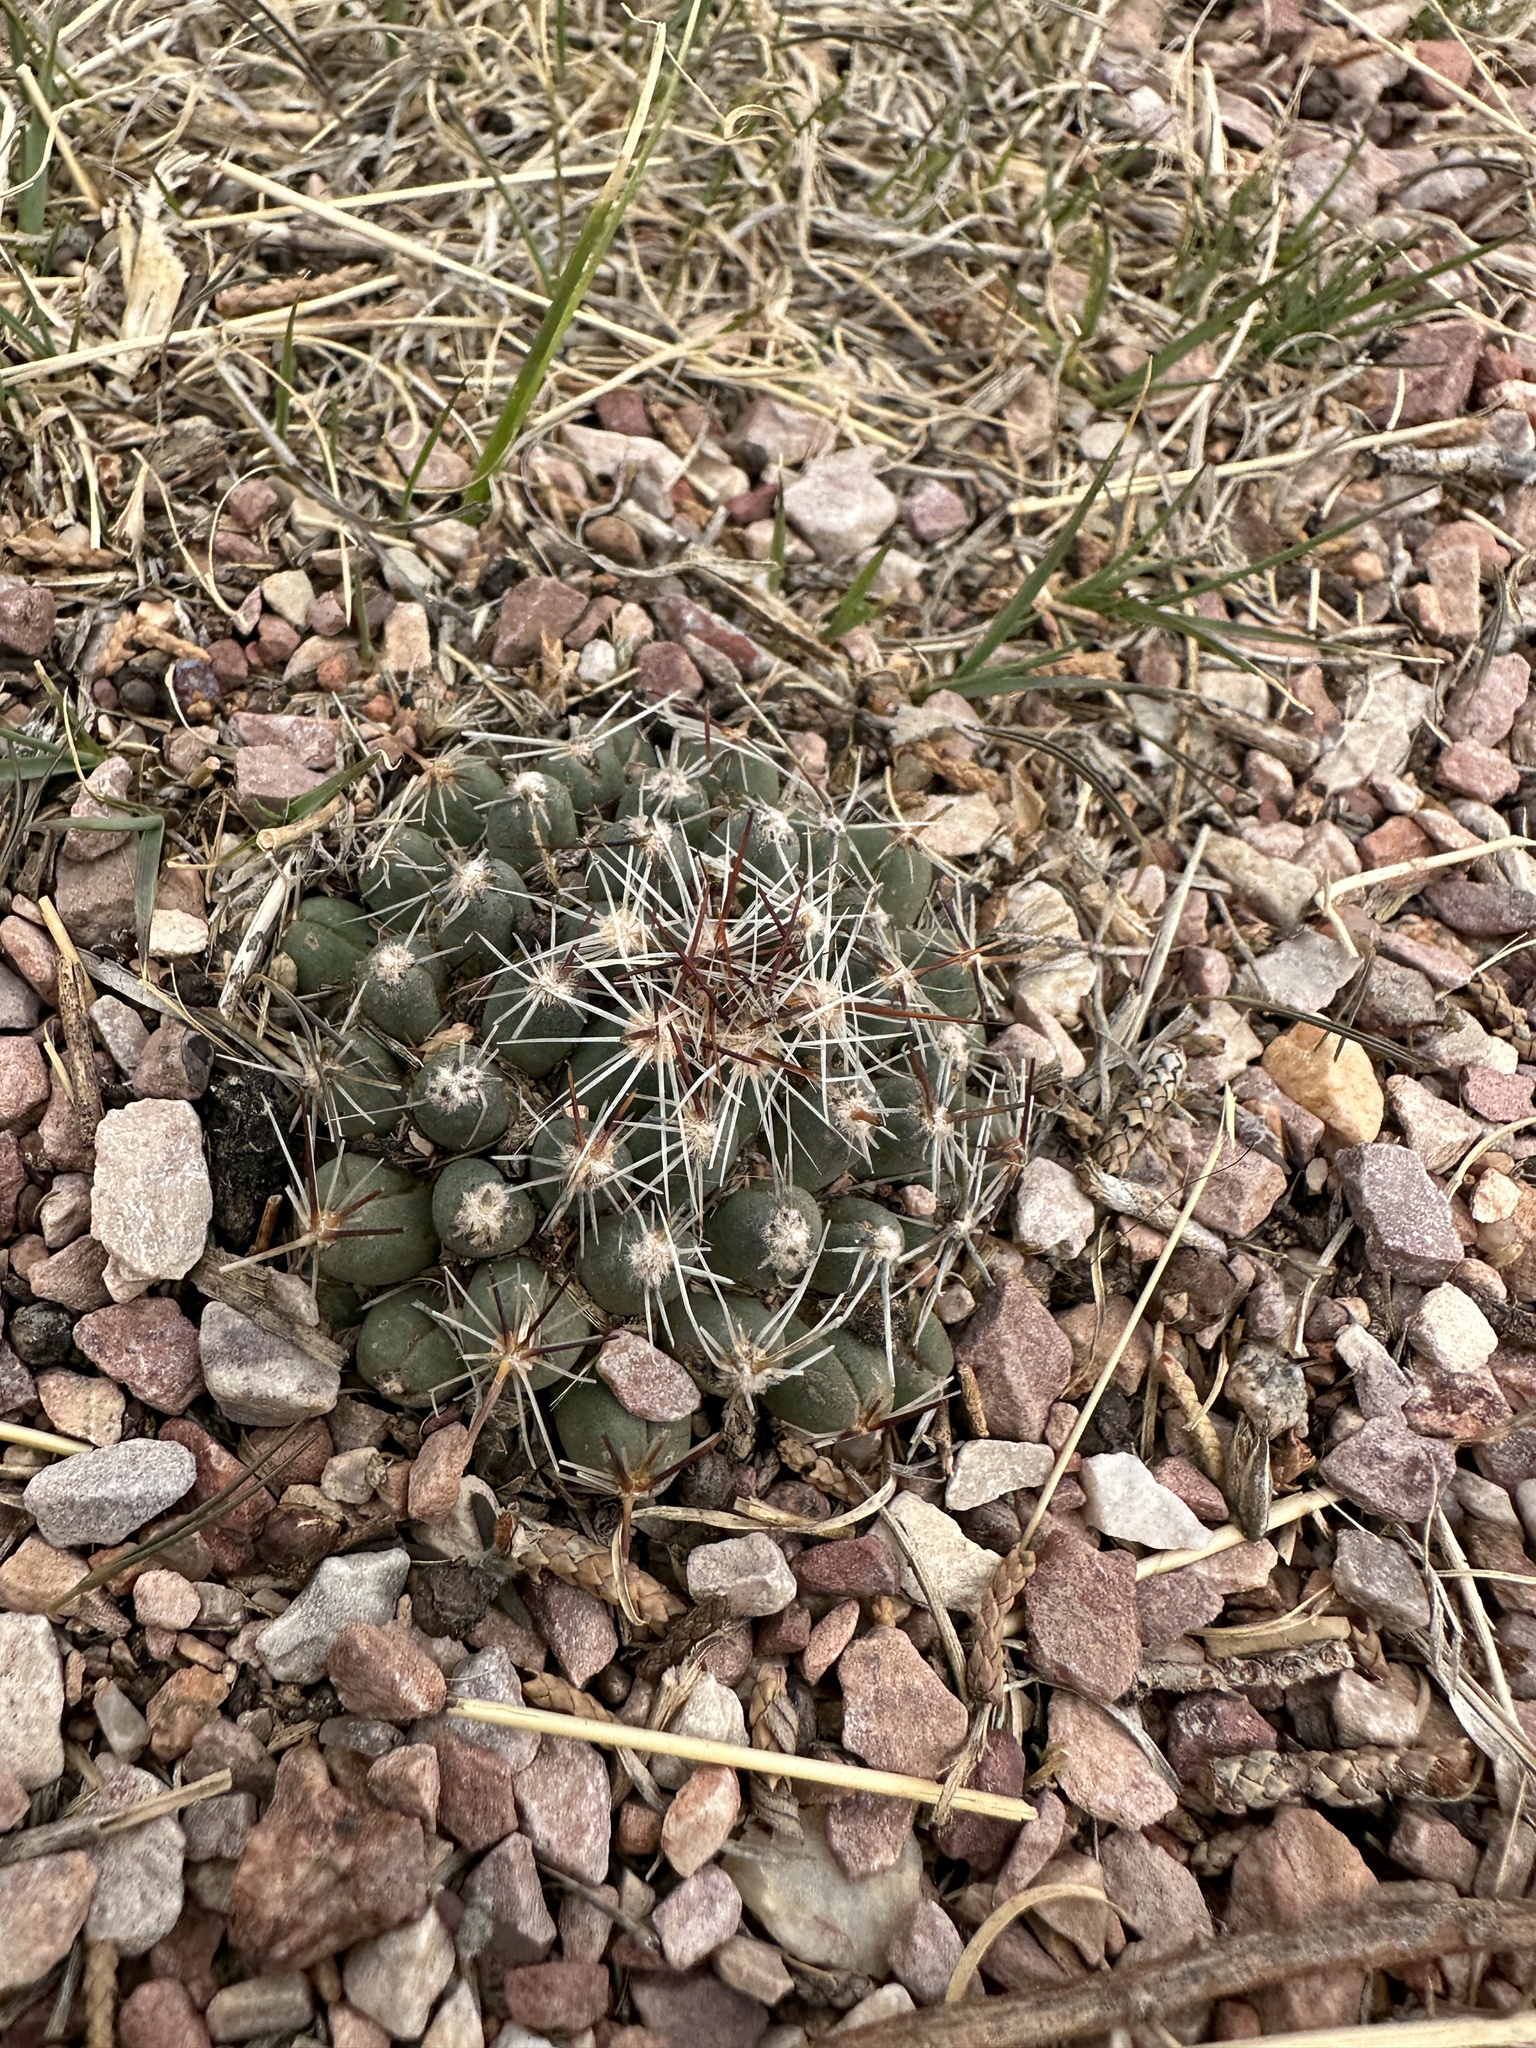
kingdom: Plantae
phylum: Tracheophyta
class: Magnoliopsida
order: Caryophyllales
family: Cactaceae
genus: Pelecyphora
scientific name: Pelecyphora vivipara
